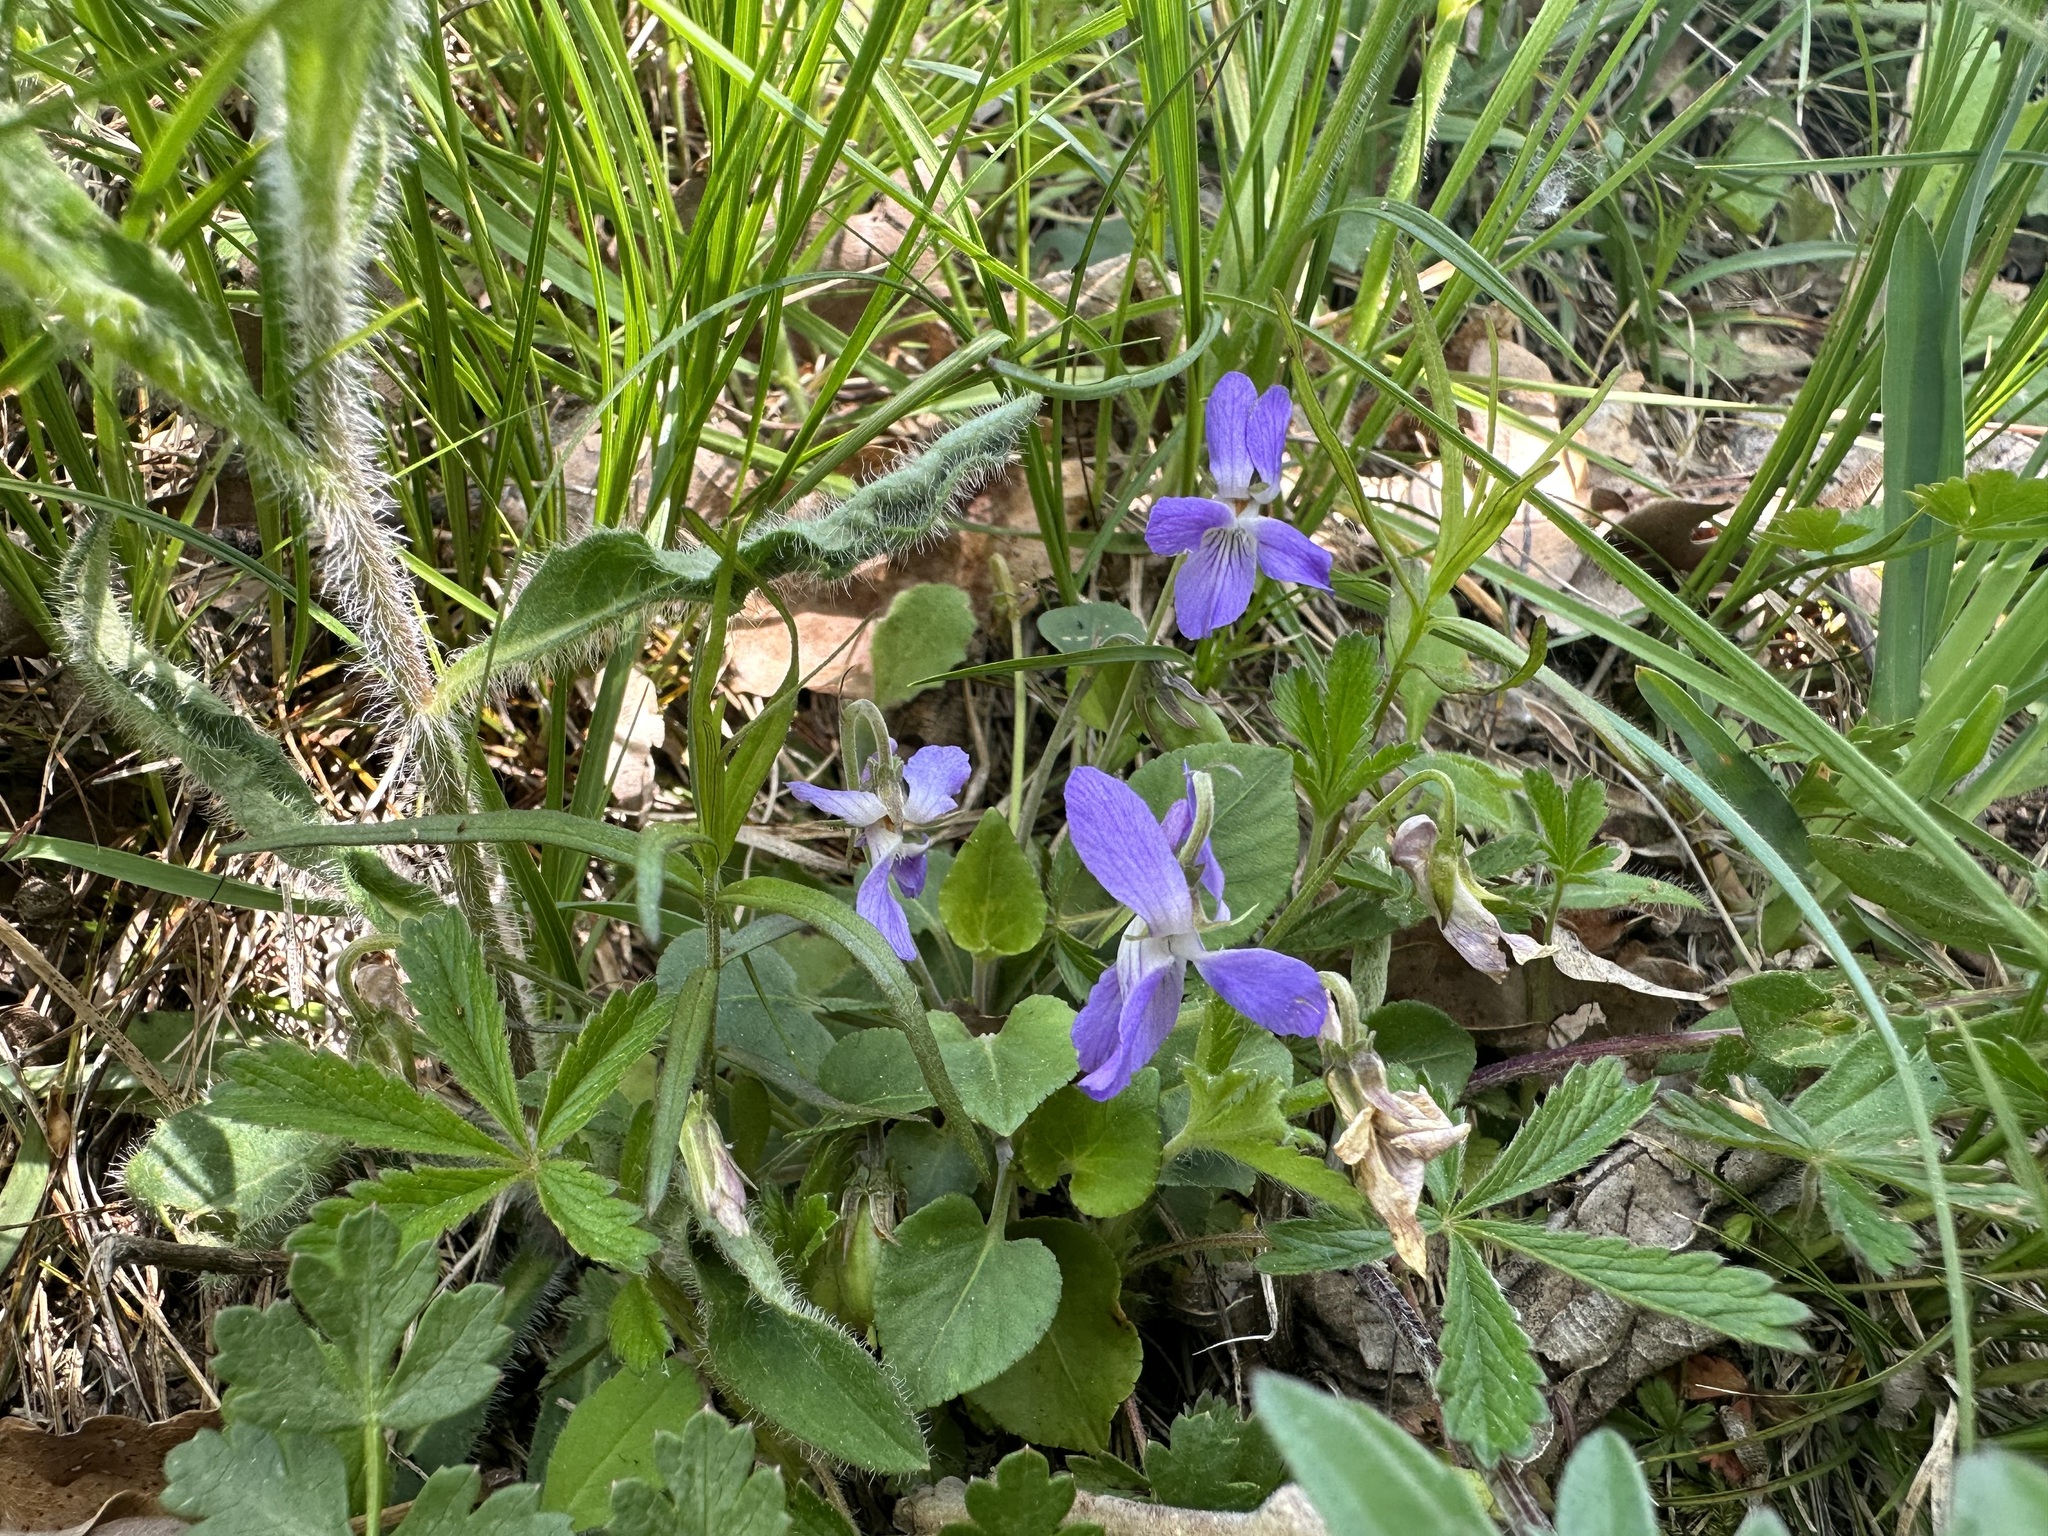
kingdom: Plantae
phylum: Tracheophyta
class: Magnoliopsida
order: Malpighiales
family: Violaceae
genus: Viola
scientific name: Viola rupestris
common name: Teesdale violet
